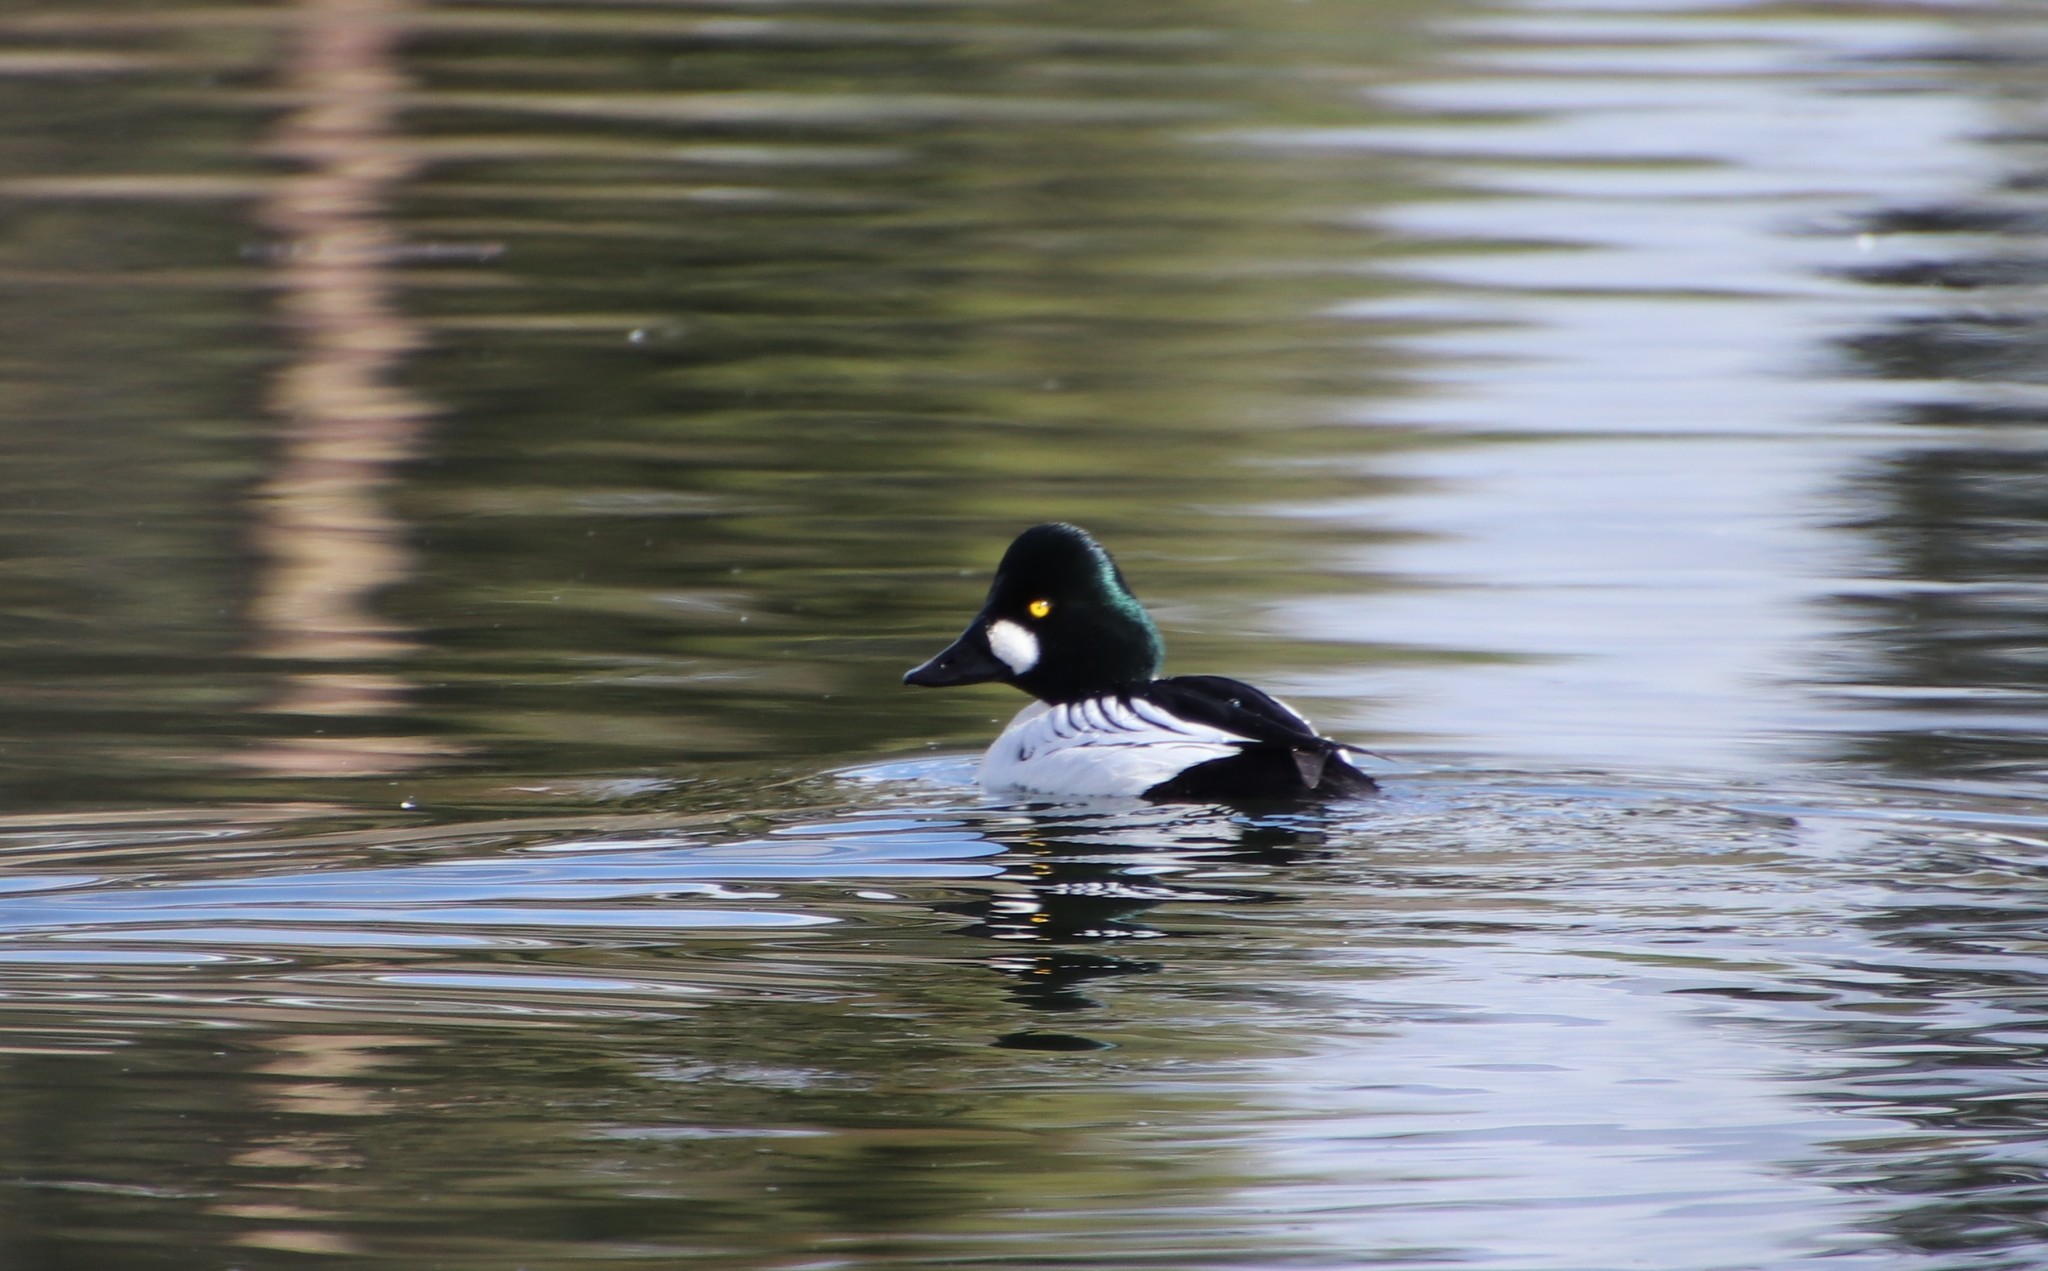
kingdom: Animalia
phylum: Chordata
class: Aves
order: Anseriformes
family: Anatidae
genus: Bucephala
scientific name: Bucephala clangula
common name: Common goldeneye
